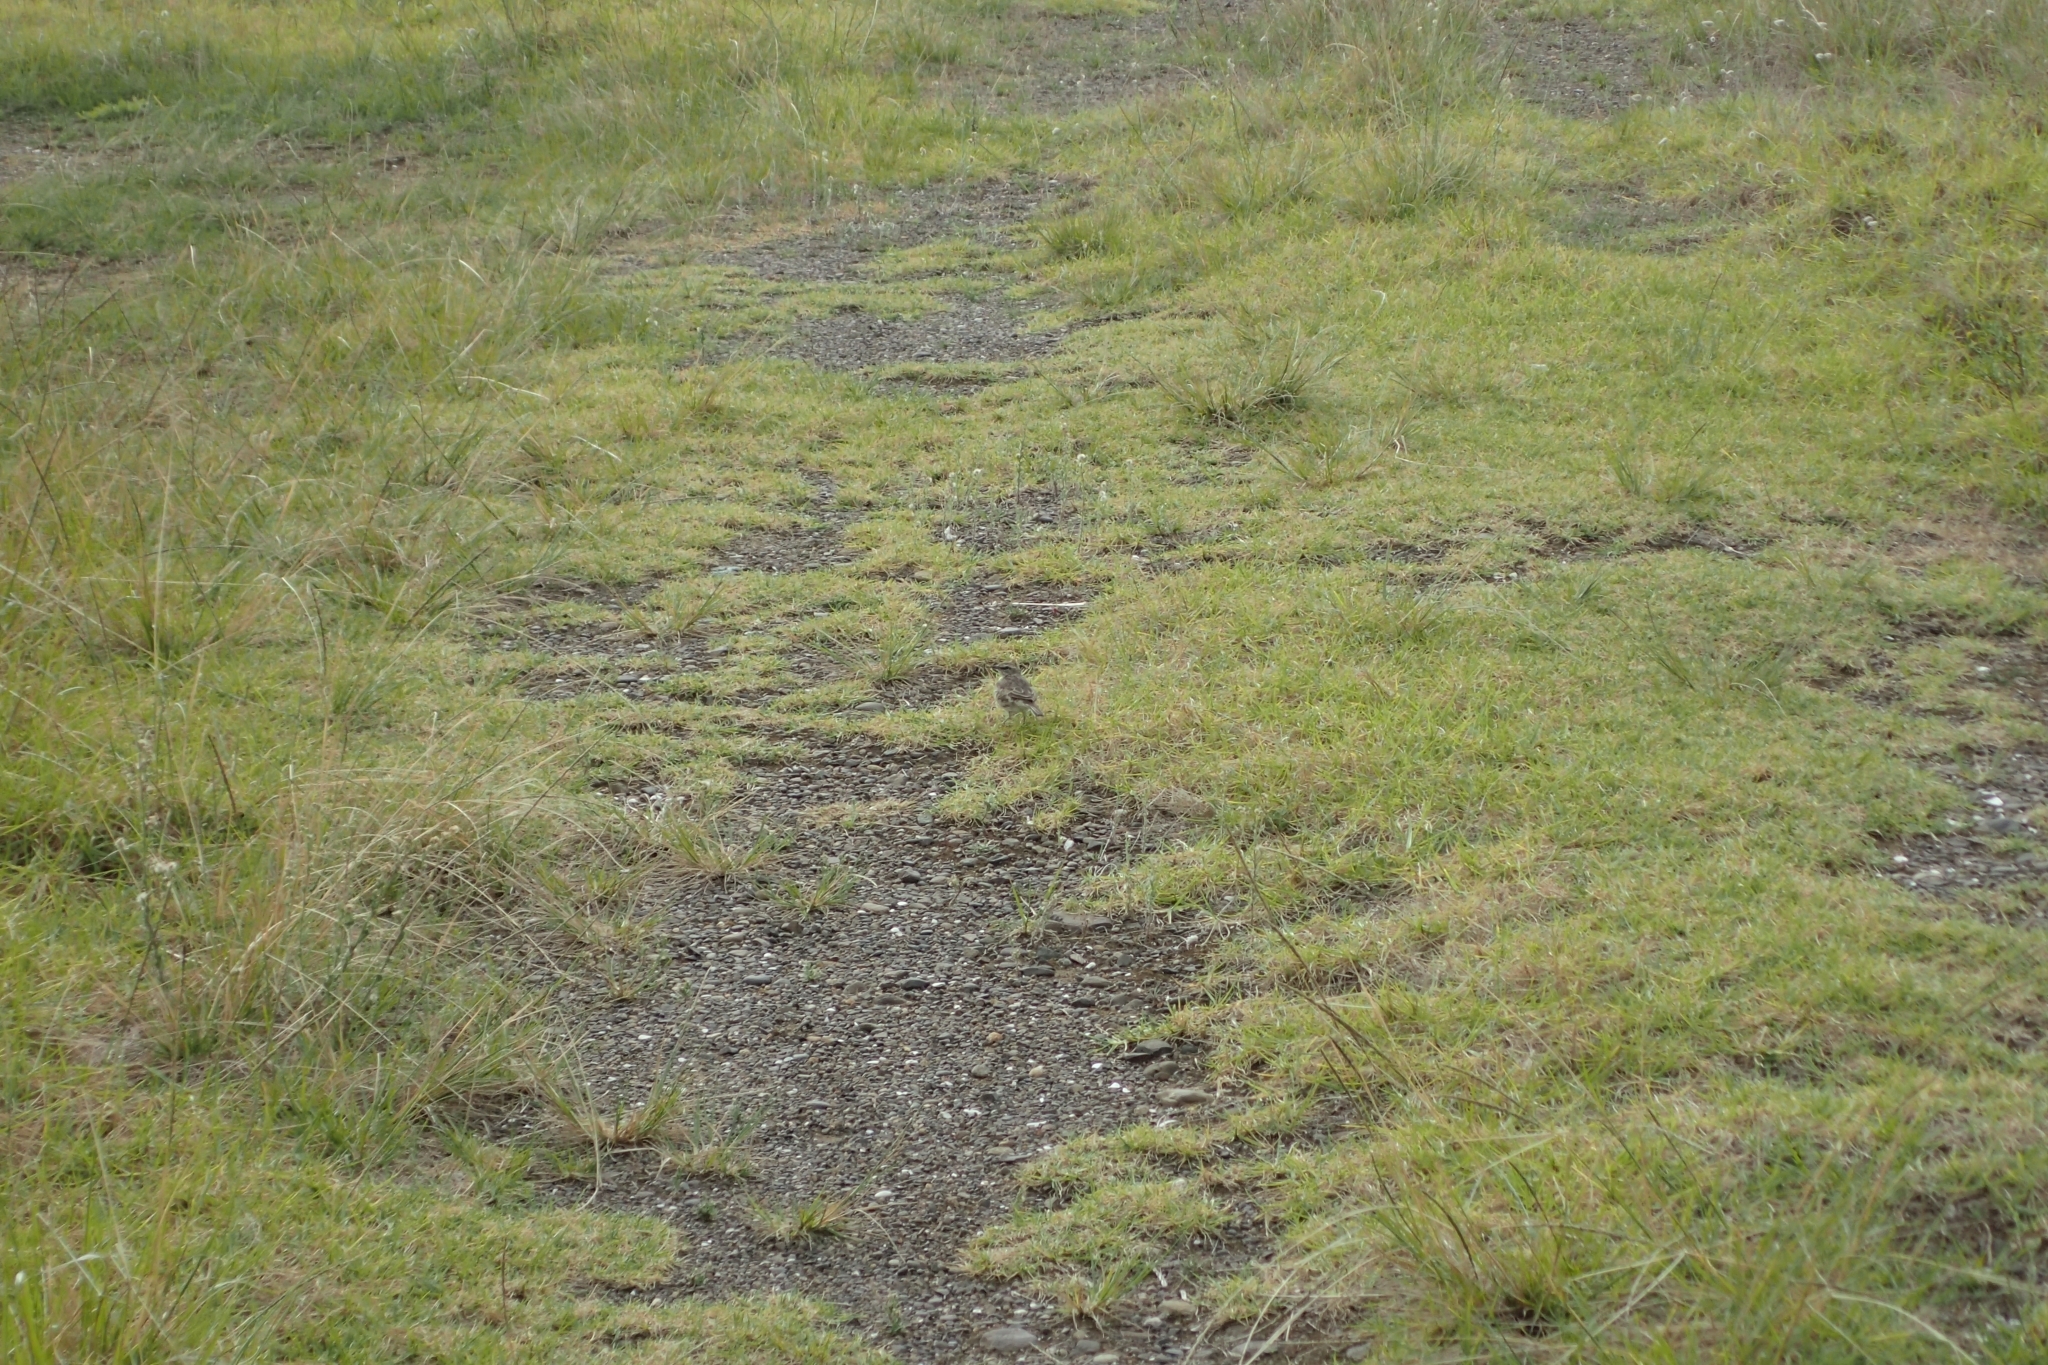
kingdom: Animalia
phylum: Chordata
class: Aves
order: Passeriformes
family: Motacillidae
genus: Anthus
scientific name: Anthus novaeseelandiae
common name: New zealand pipit
